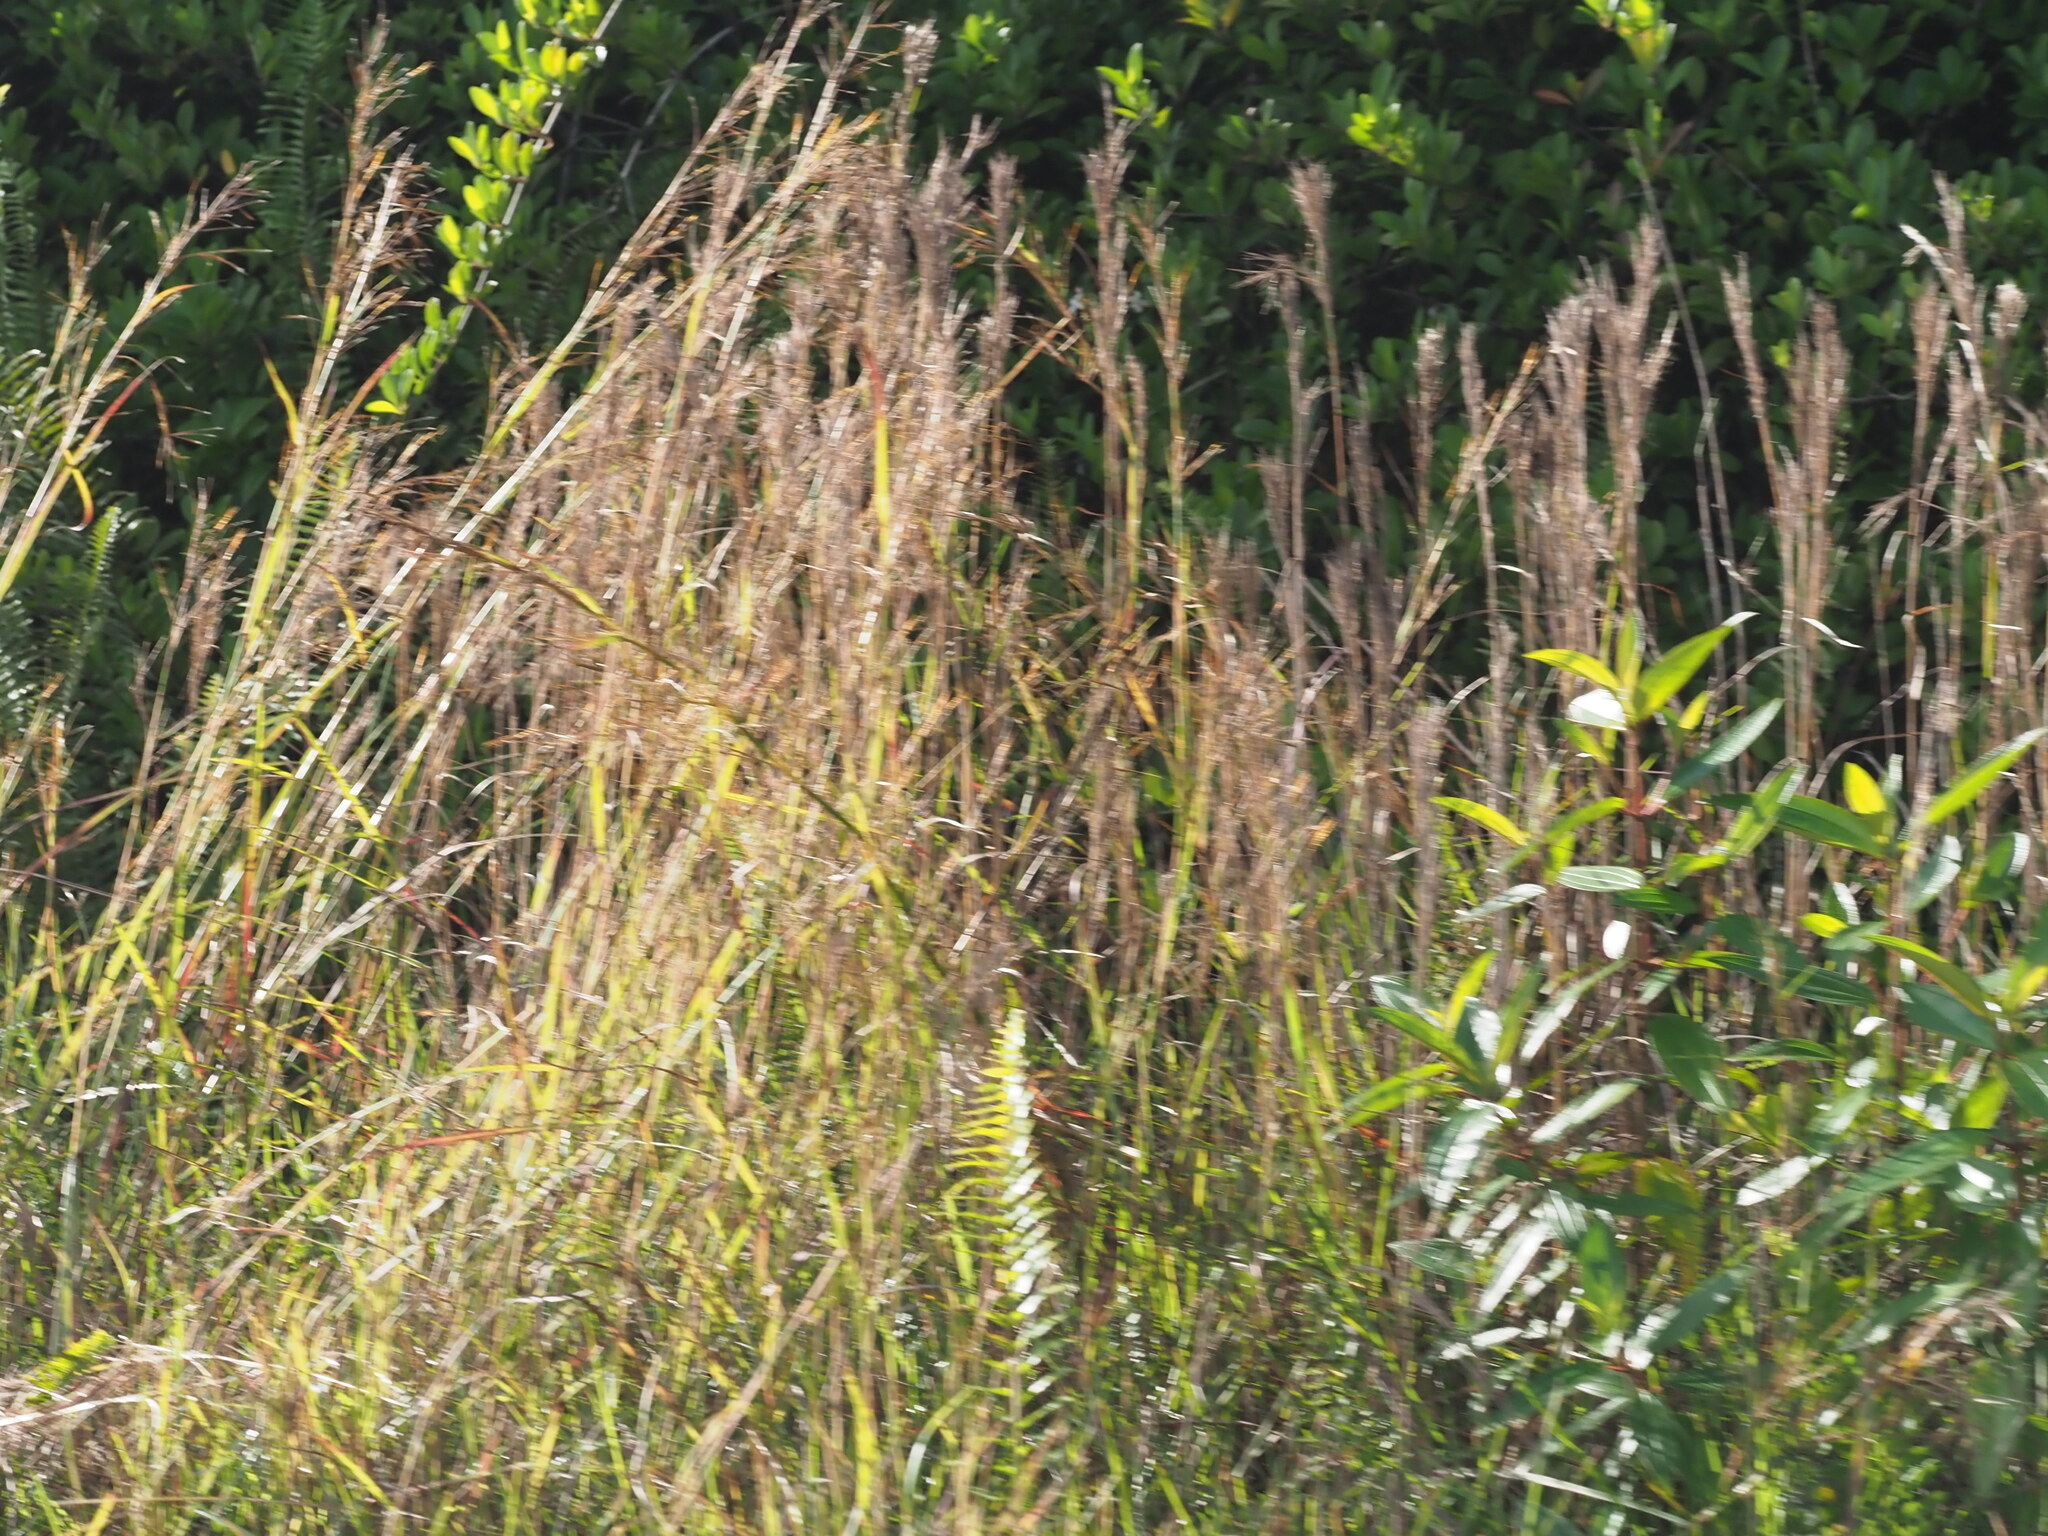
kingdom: Plantae
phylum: Tracheophyta
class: Liliopsida
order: Poales
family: Poaceae
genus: Hyparrhenia
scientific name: Hyparrhenia rufa
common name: Jaraguagrass
